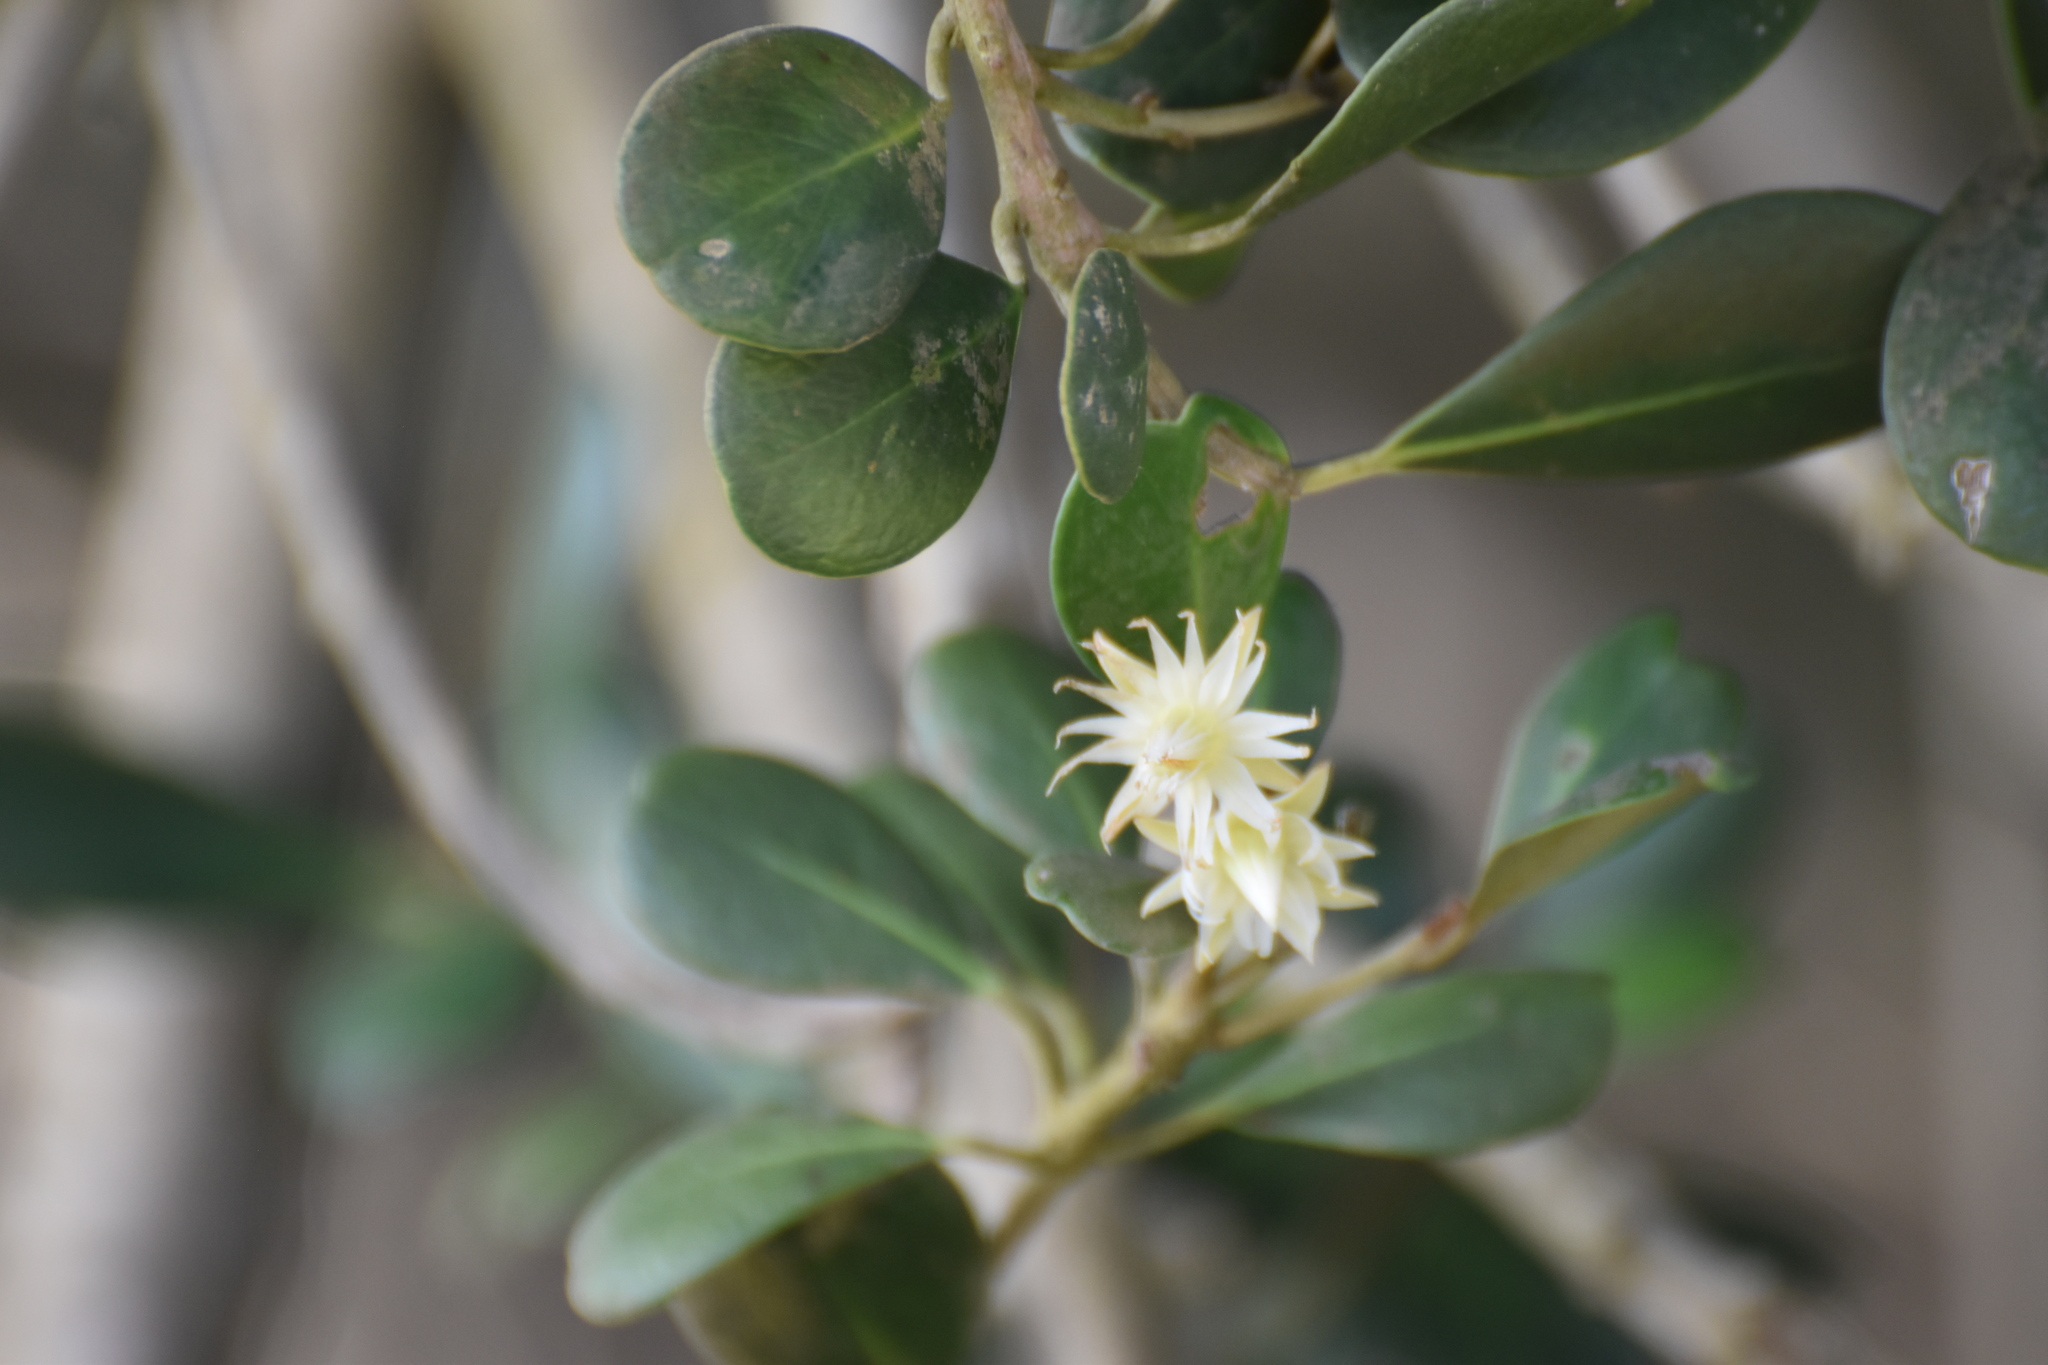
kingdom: Plantae
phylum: Tracheophyta
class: Magnoliopsida
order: Ericales
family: Sapotaceae
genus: Mimusops
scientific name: Mimusops caffra
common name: Coastal red milkwood
